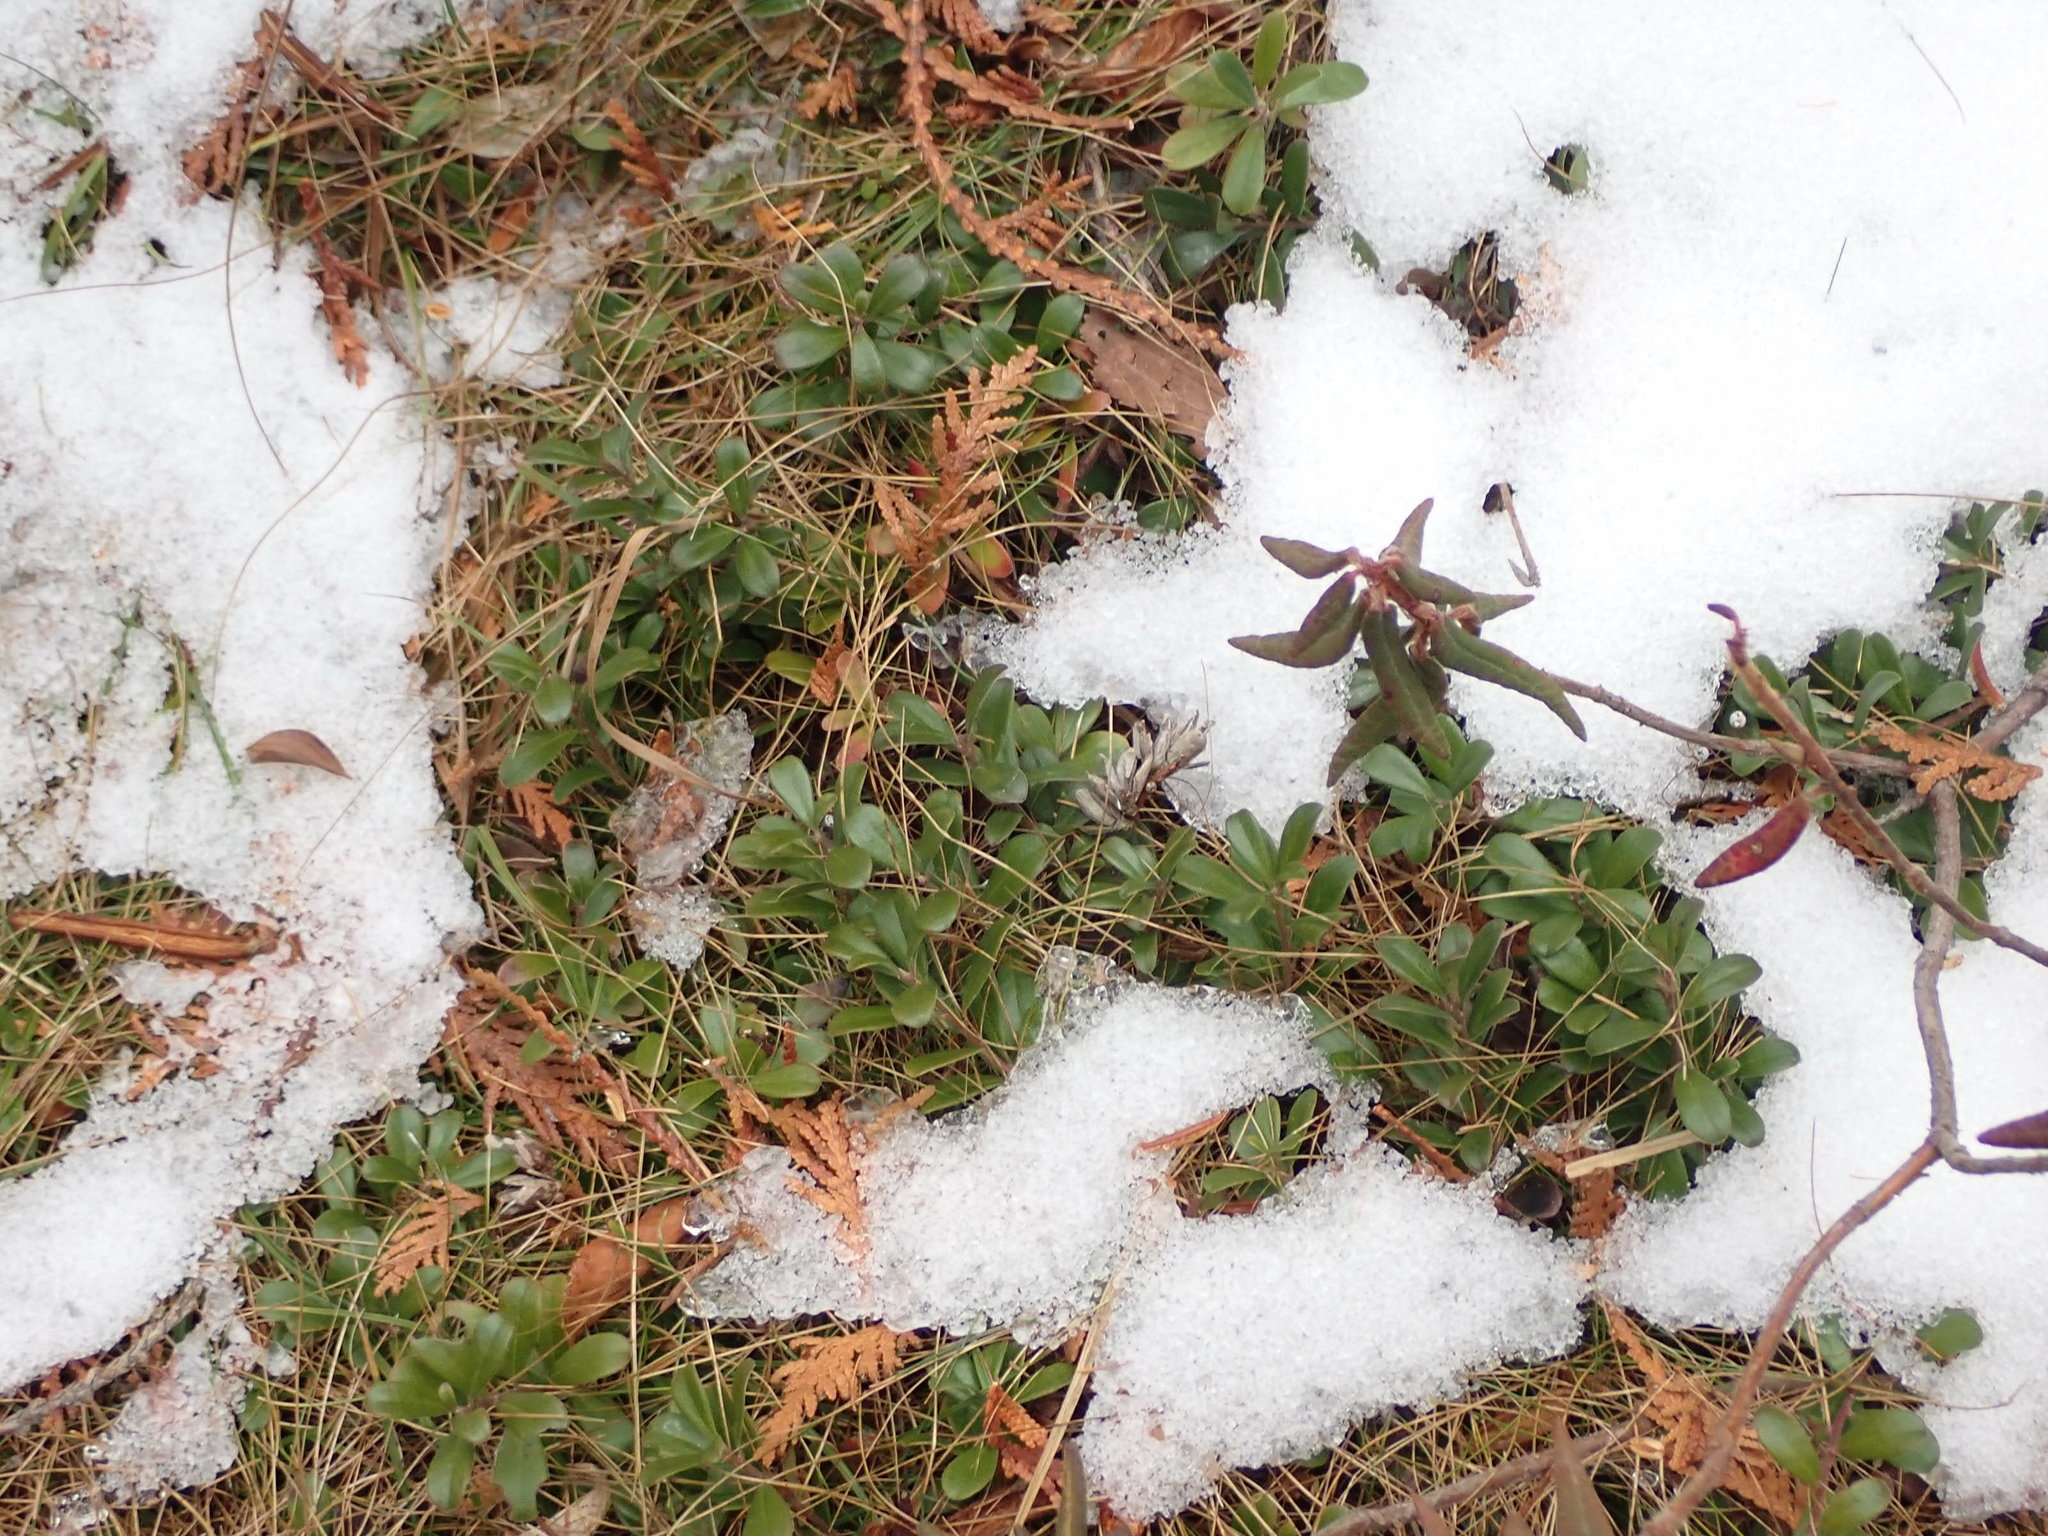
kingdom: Plantae
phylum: Tracheophyta
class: Magnoliopsida
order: Ericales
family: Ericaceae
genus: Arctostaphylos
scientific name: Arctostaphylos uva-ursi
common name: Bearberry
